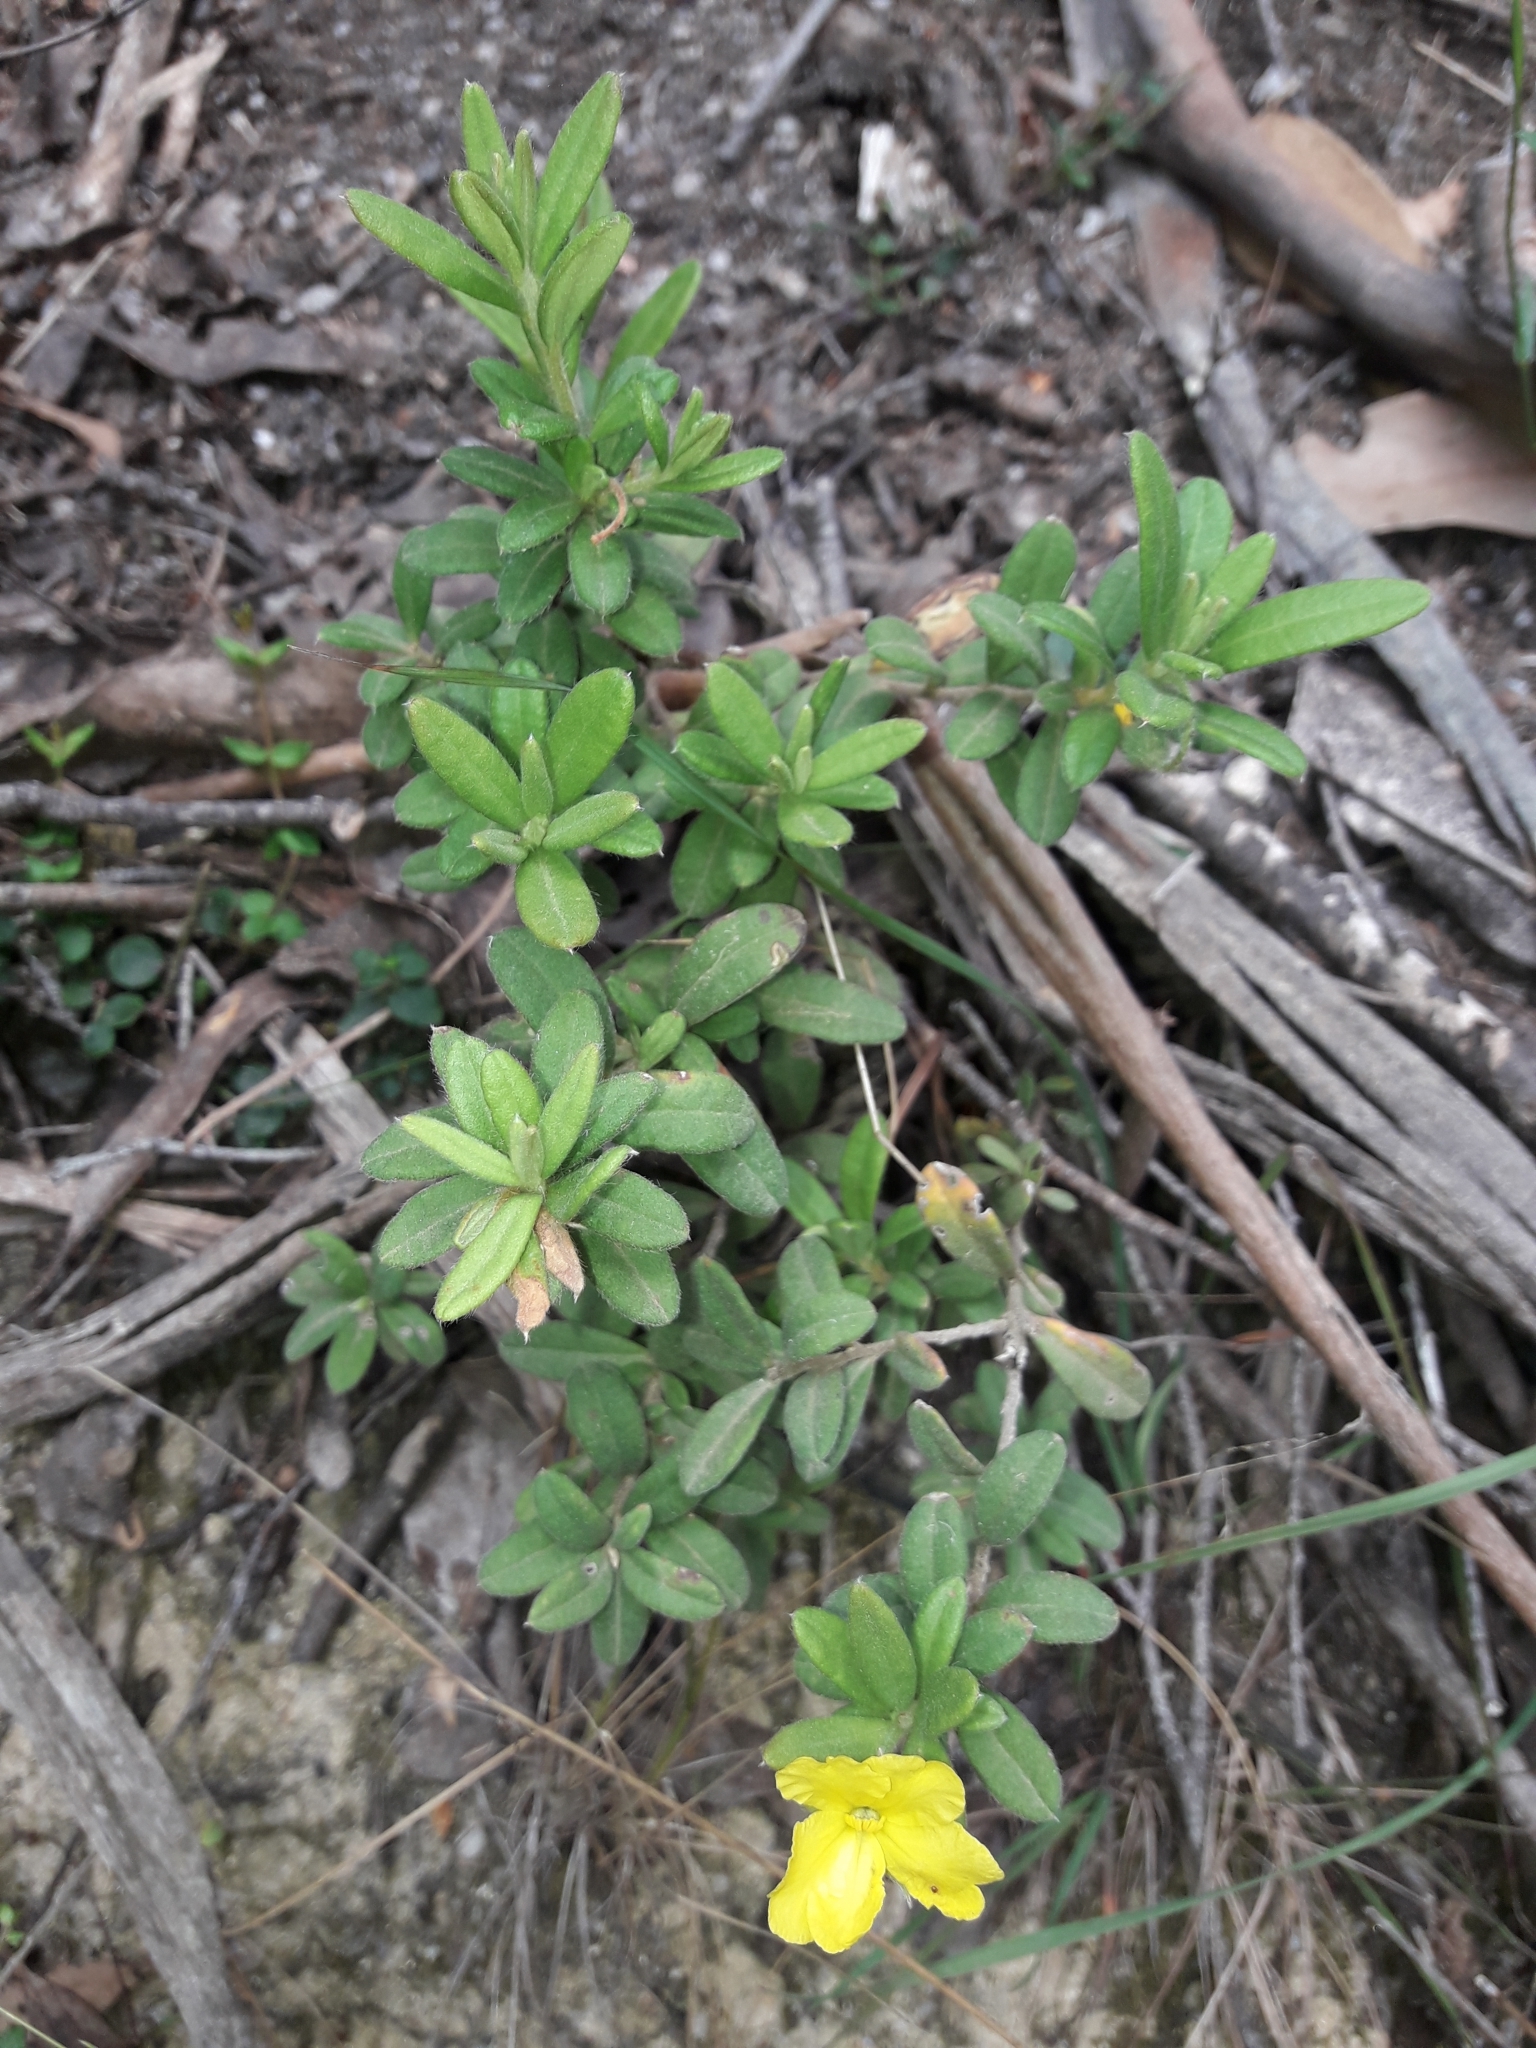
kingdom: Plantae
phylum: Tracheophyta
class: Magnoliopsida
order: Dilleniales
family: Dilleniaceae
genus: Hibbertia
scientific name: Hibbertia hirticalyx
